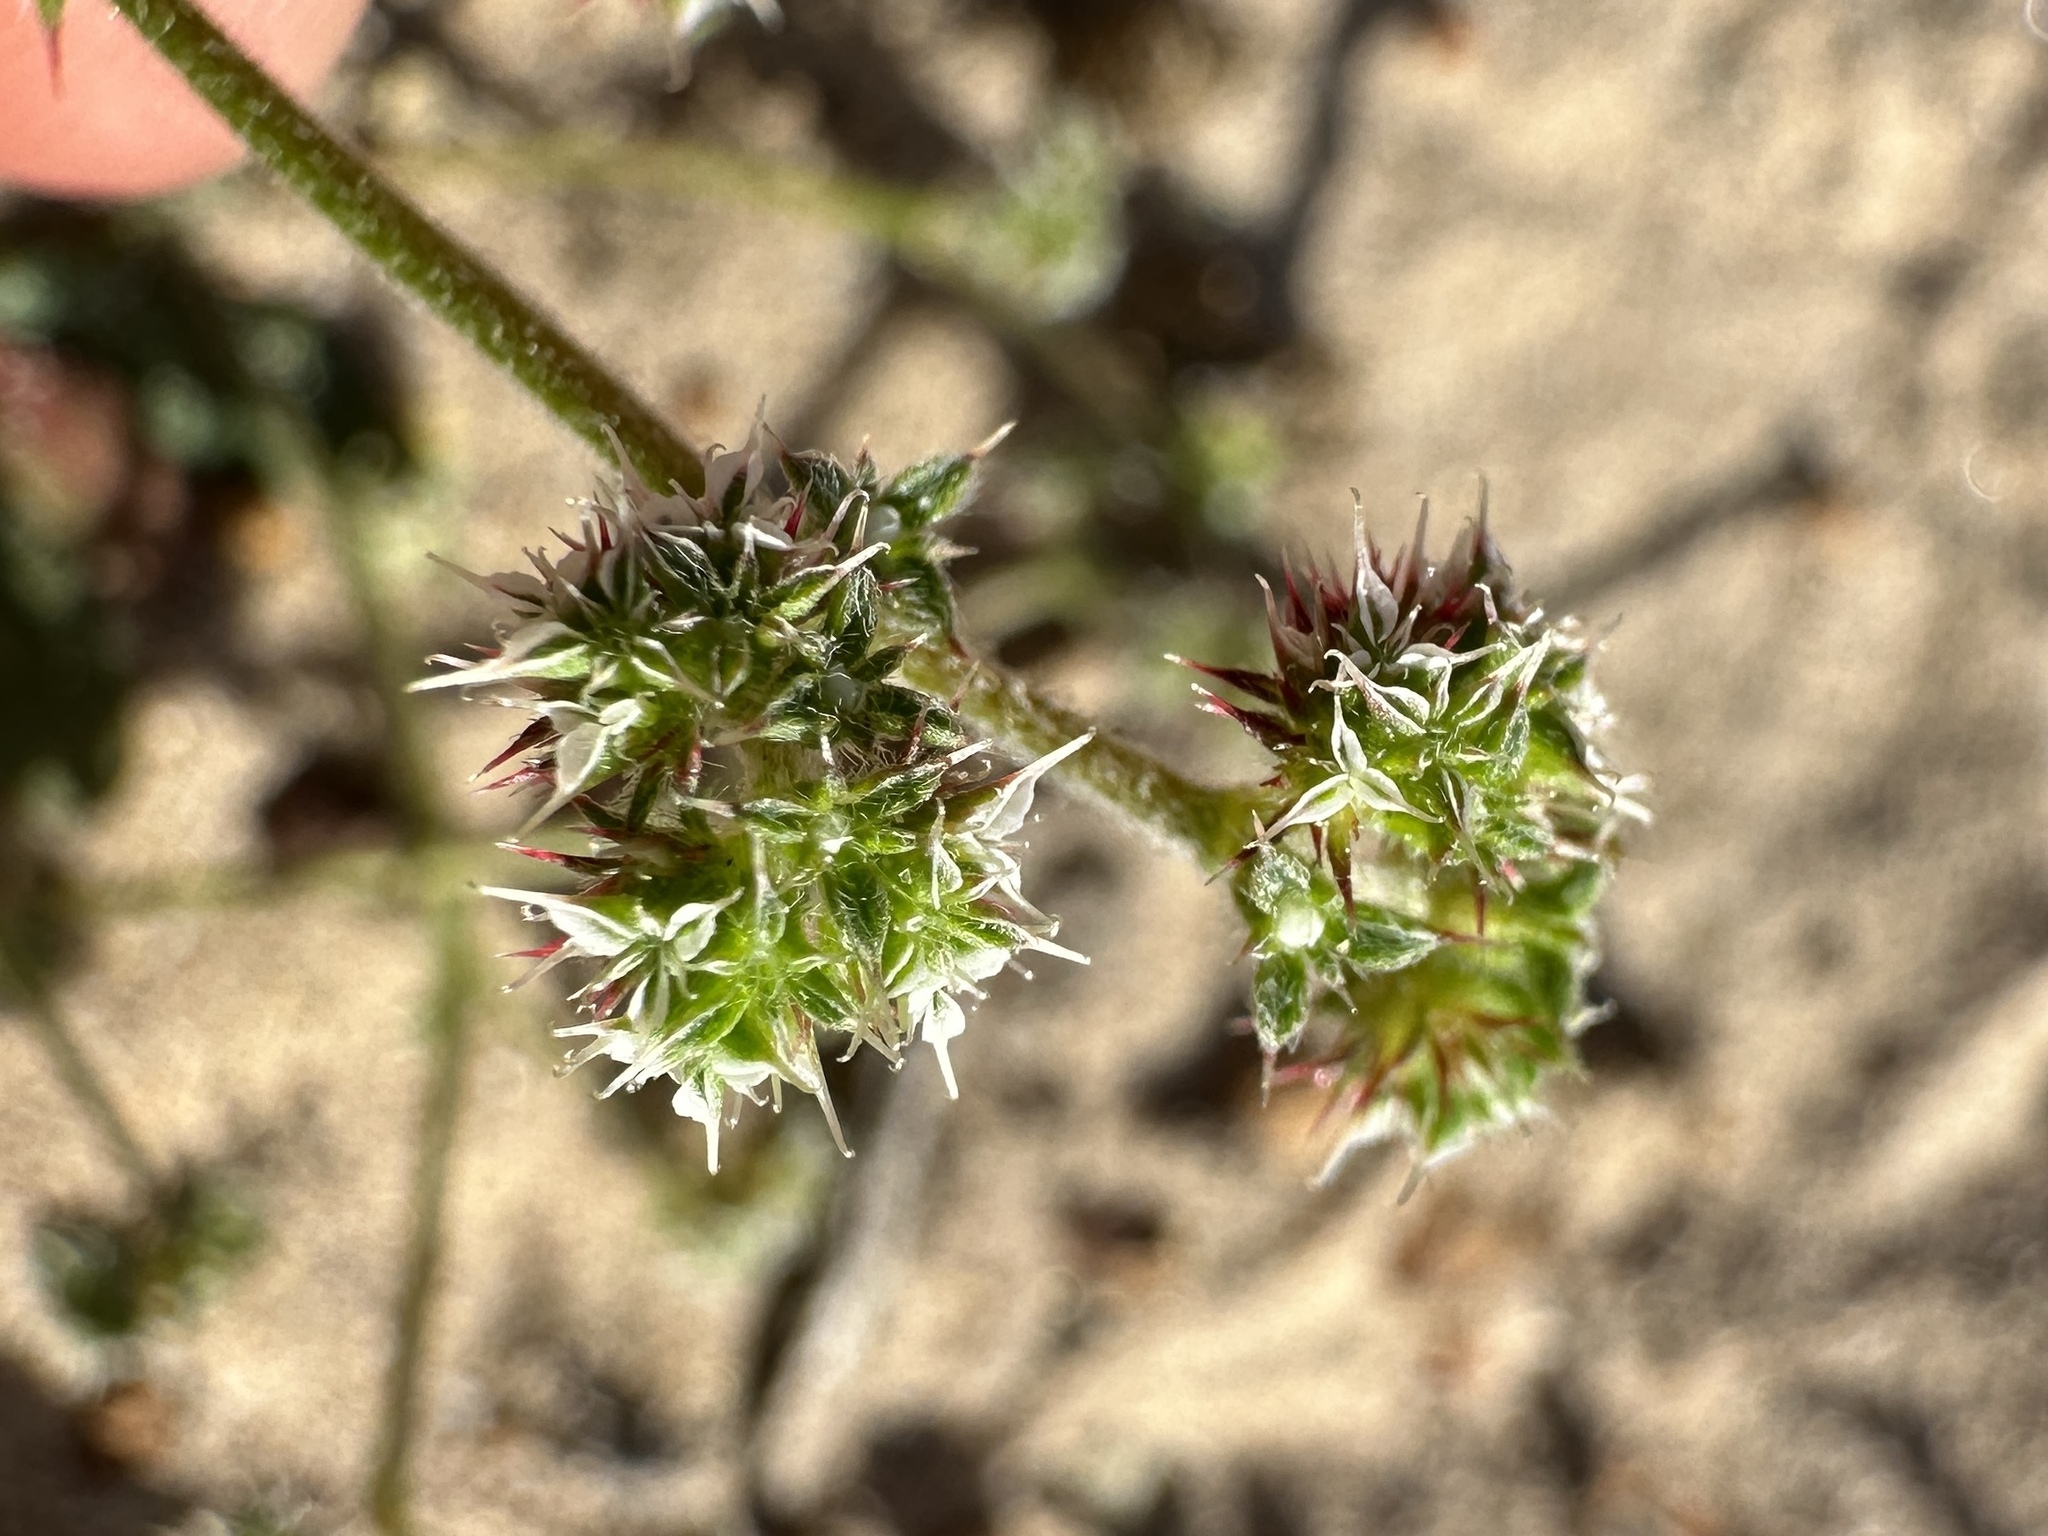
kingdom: Plantae
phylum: Tracheophyta
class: Magnoliopsida
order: Caryophyllales
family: Polygonaceae
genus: Chorizanthe
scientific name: Chorizanthe diffusa
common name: Diffuse spineflower
